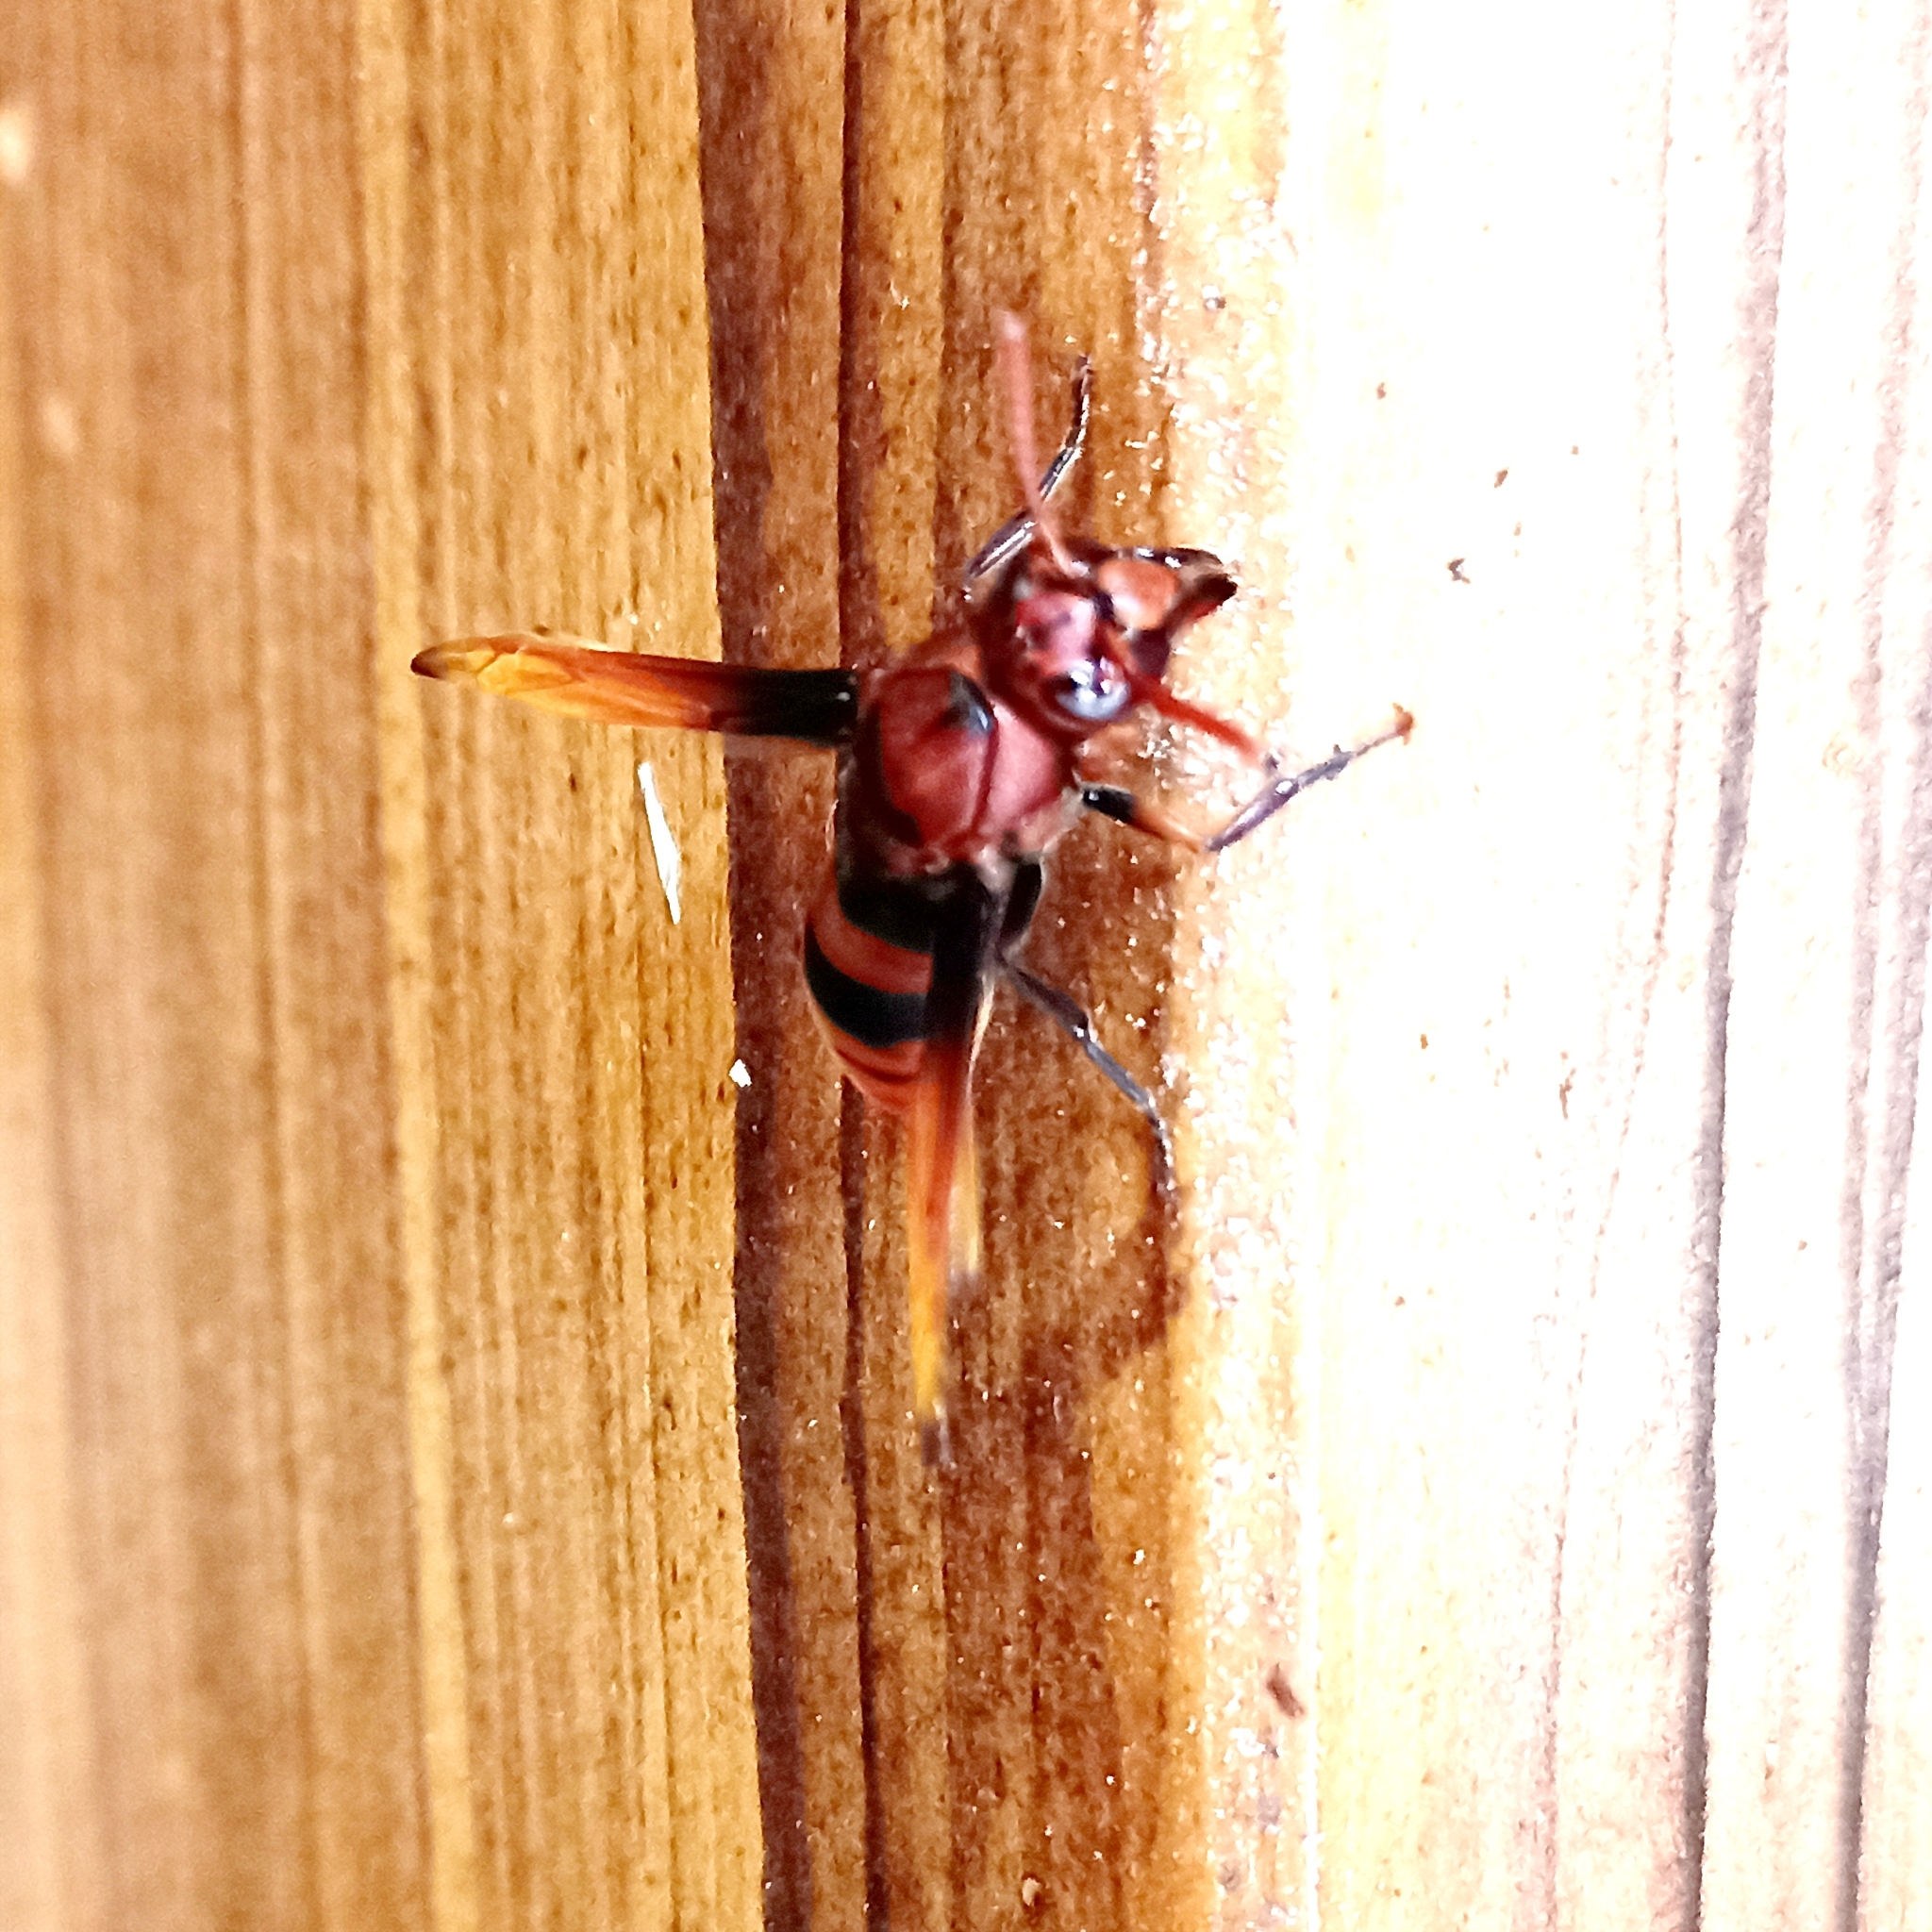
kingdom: Animalia
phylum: Arthropoda
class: Insecta
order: Hymenoptera
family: Eumenidae
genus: Rhynchium
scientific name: Rhynchium brunneum
